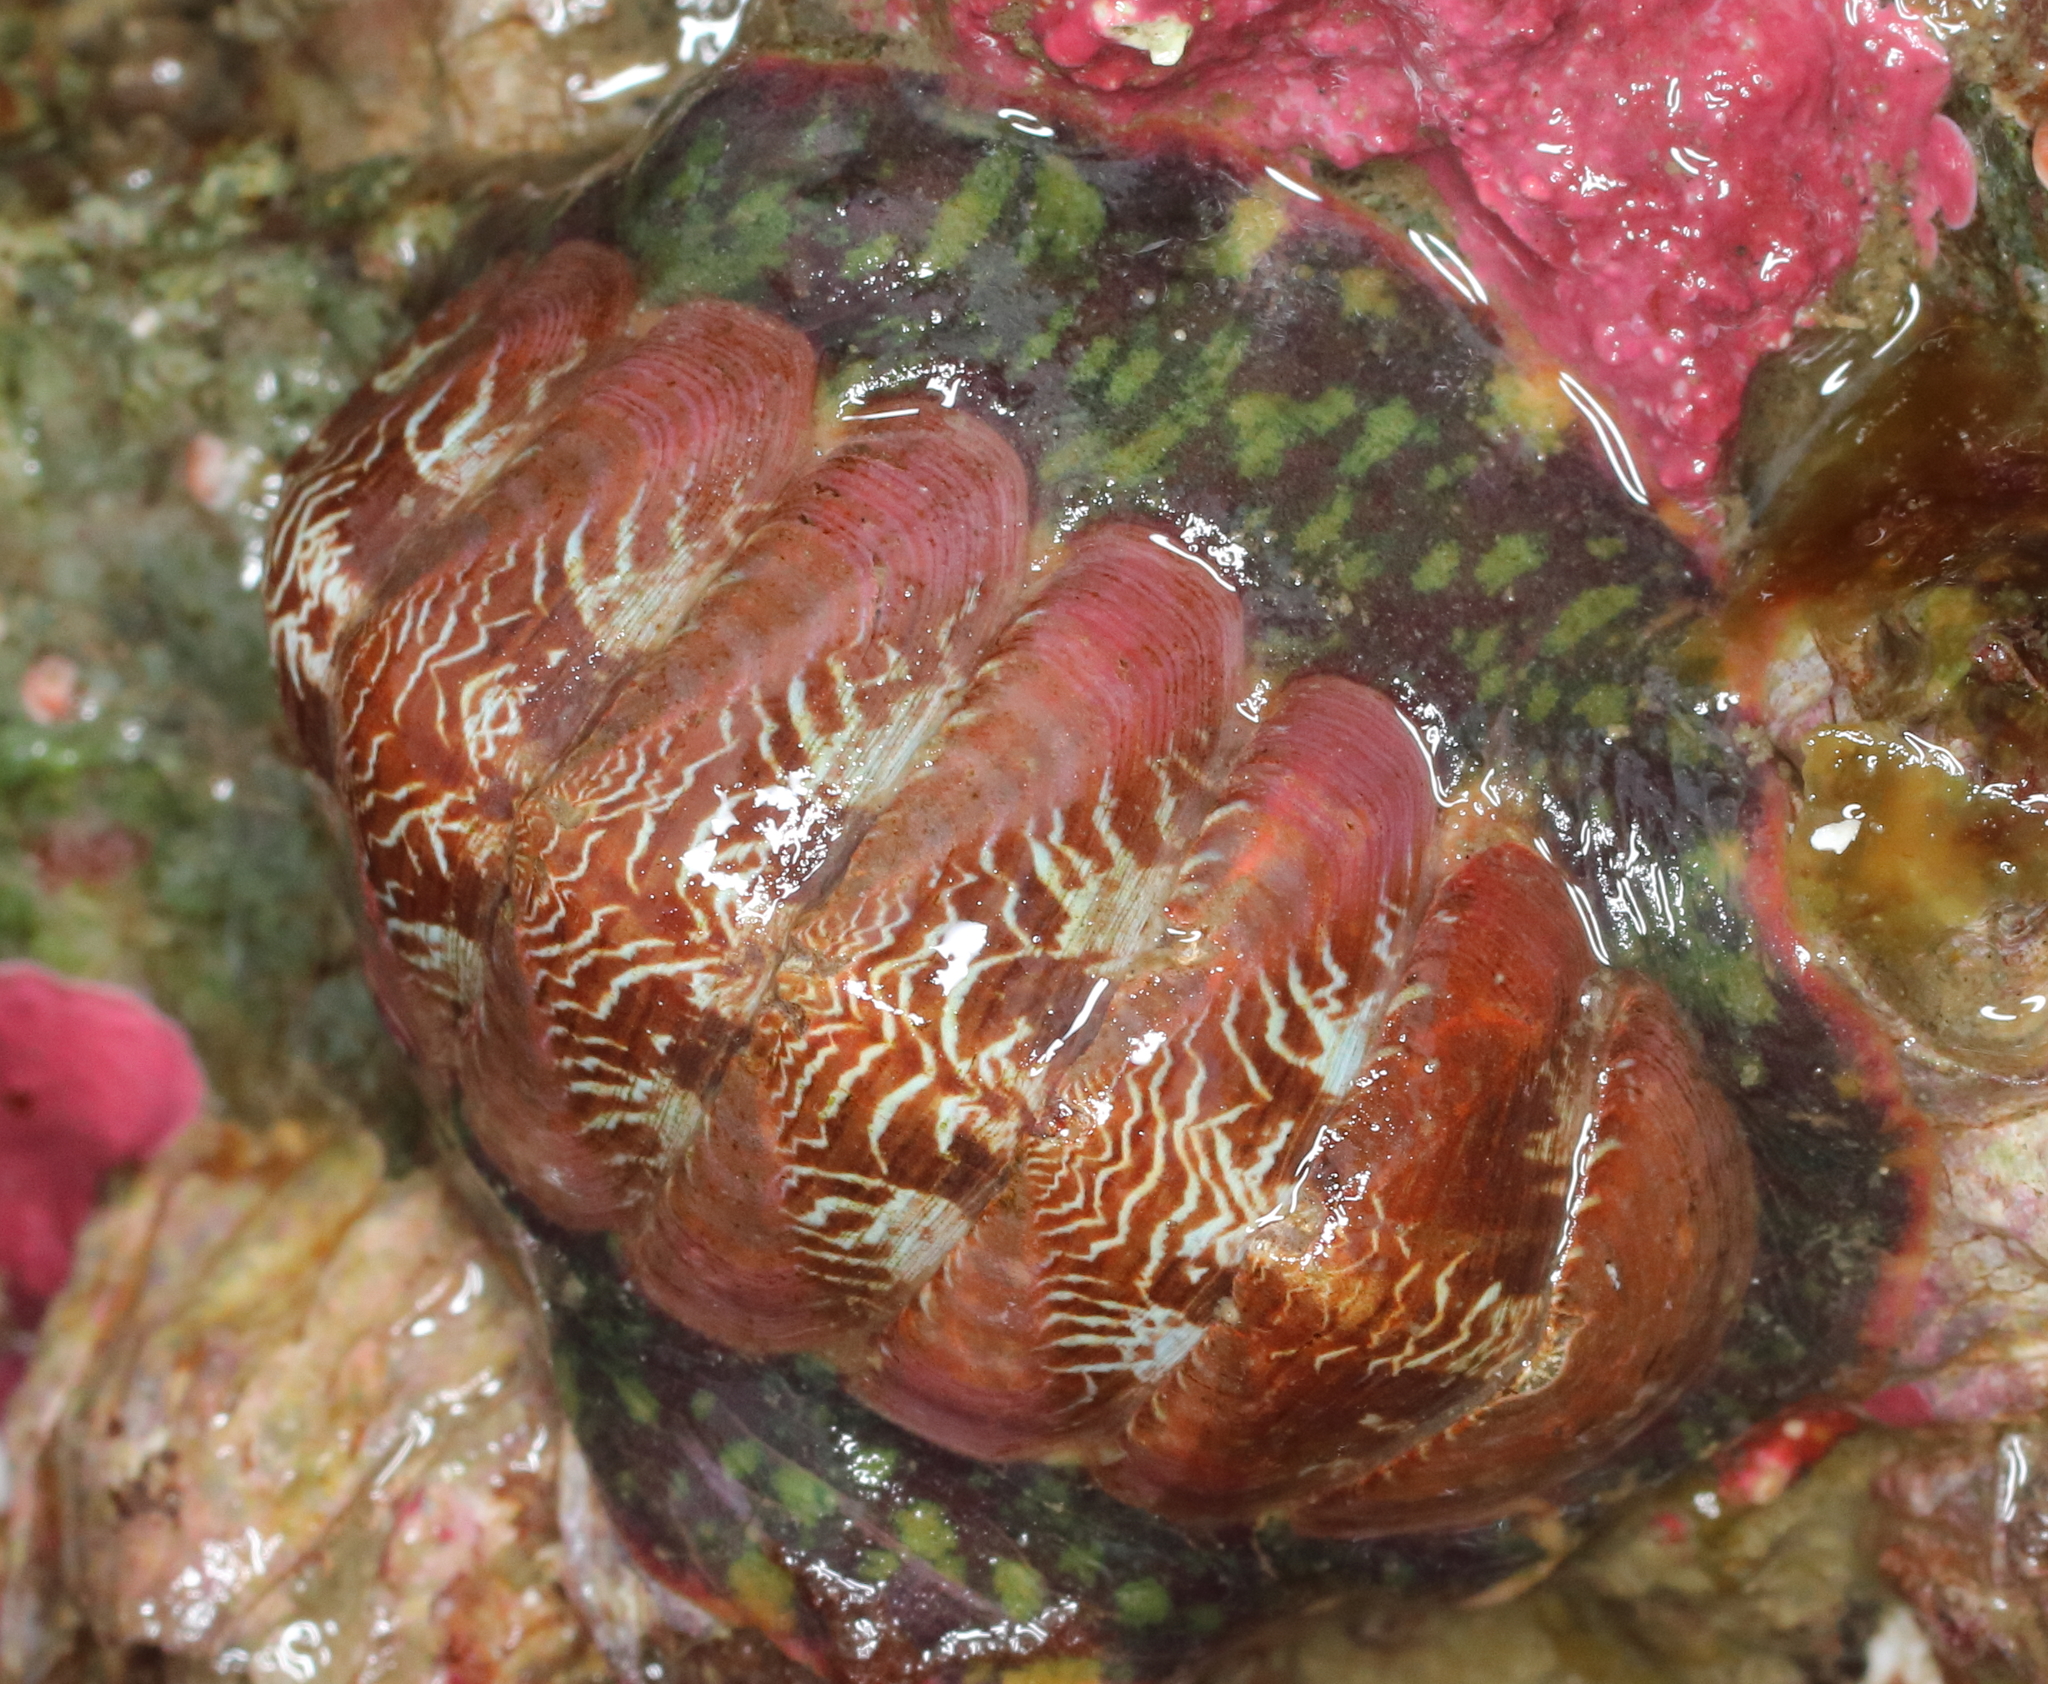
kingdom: Animalia
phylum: Mollusca
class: Polyplacophora
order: Chitonida
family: Tonicellidae
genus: Tonicella
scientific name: Tonicella insignis
